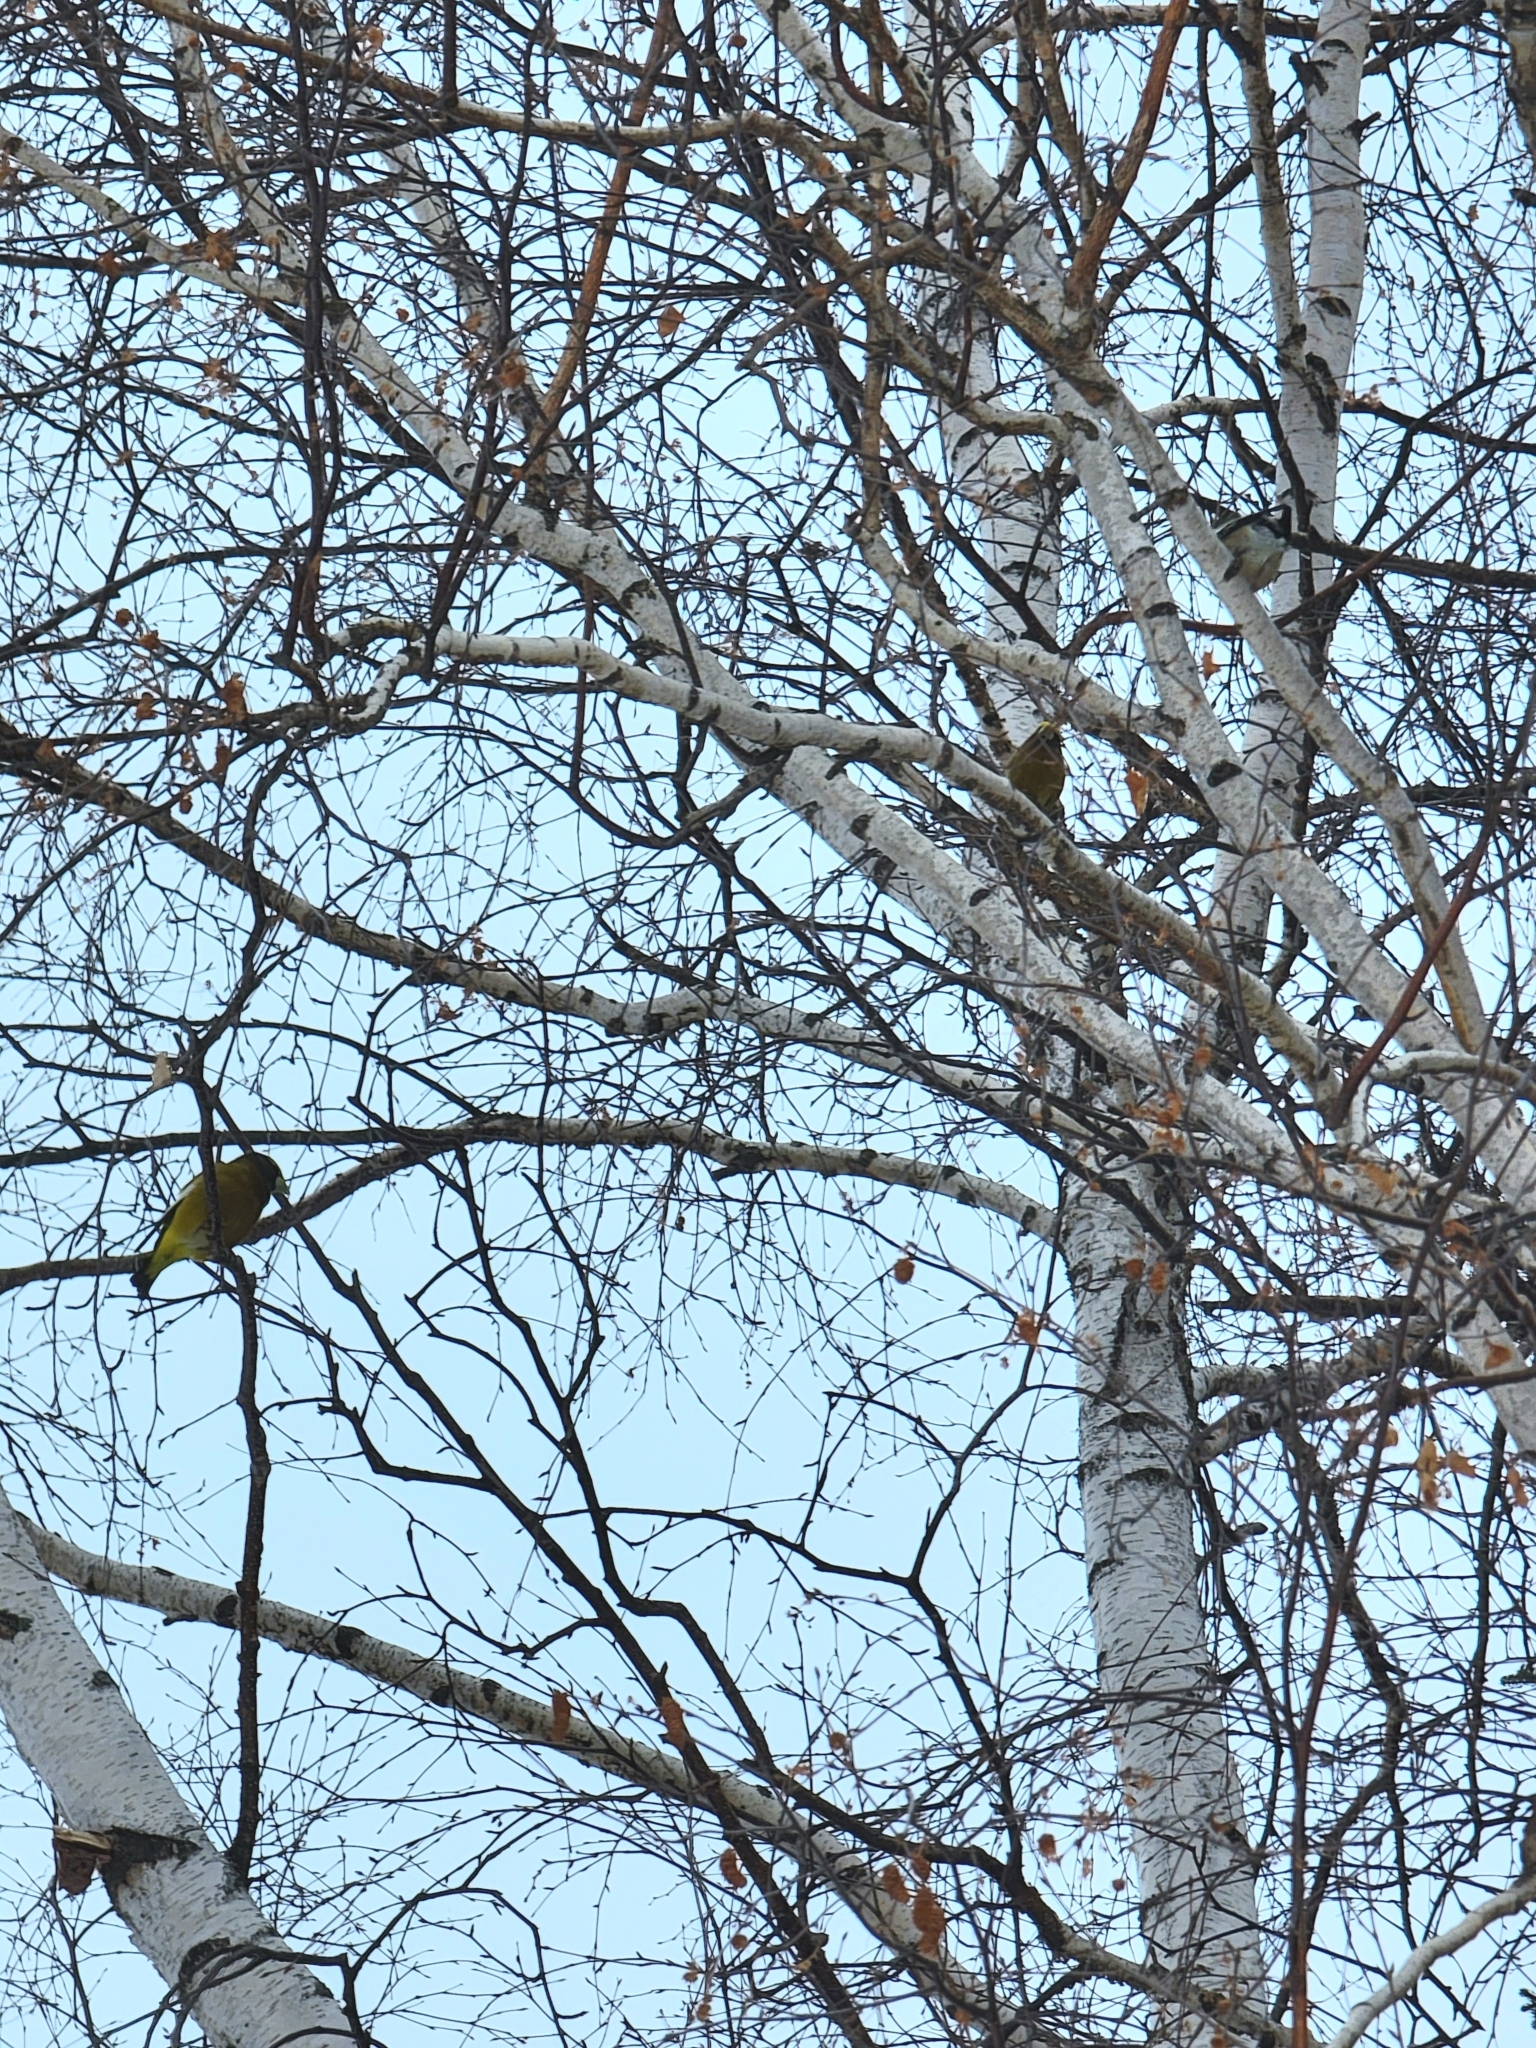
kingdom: Animalia
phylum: Chordata
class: Aves
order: Passeriformes
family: Fringillidae
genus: Hesperiphona
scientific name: Hesperiphona vespertina
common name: Evening grosbeak
